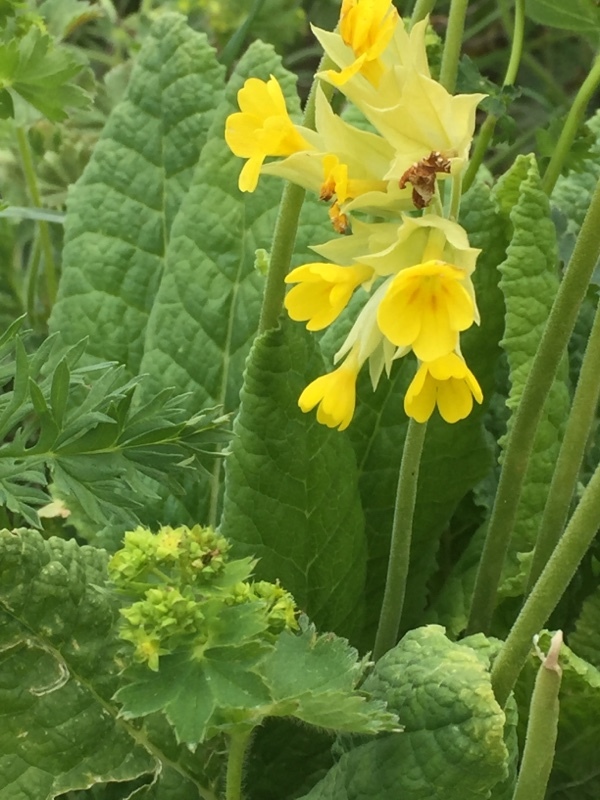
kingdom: Plantae
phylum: Tracheophyta
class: Magnoliopsida
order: Ericales
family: Primulaceae
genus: Primula
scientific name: Primula veris
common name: Cowslip
